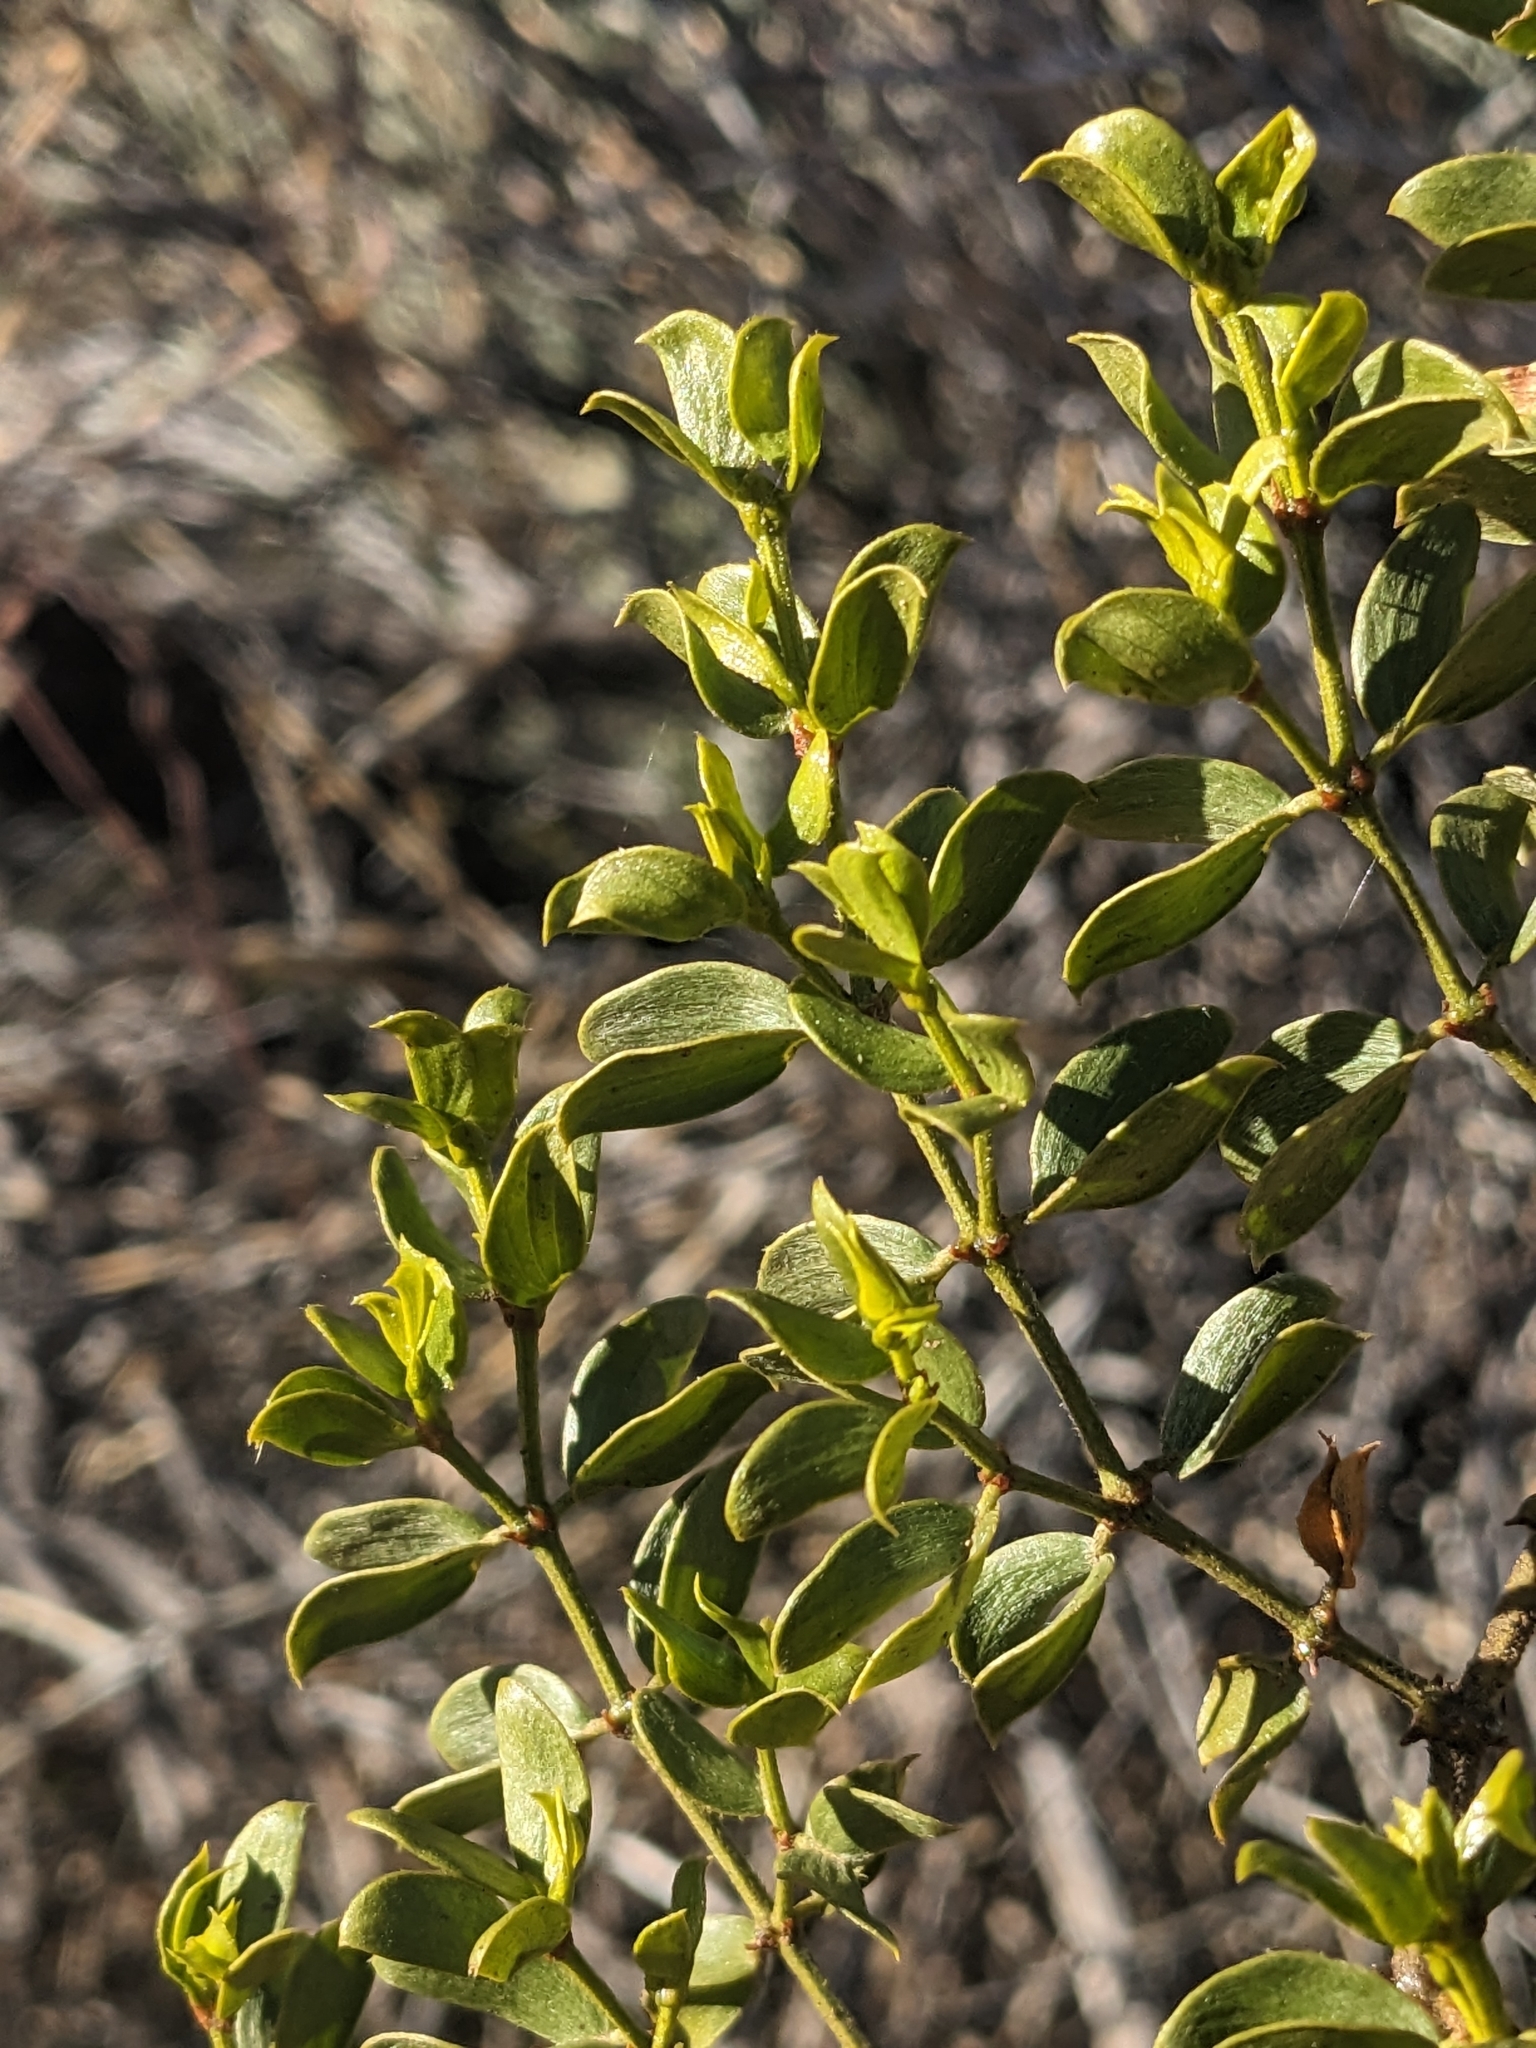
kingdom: Plantae
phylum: Tracheophyta
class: Magnoliopsida
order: Zygophyllales
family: Zygophyllaceae
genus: Larrea
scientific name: Larrea tridentata
